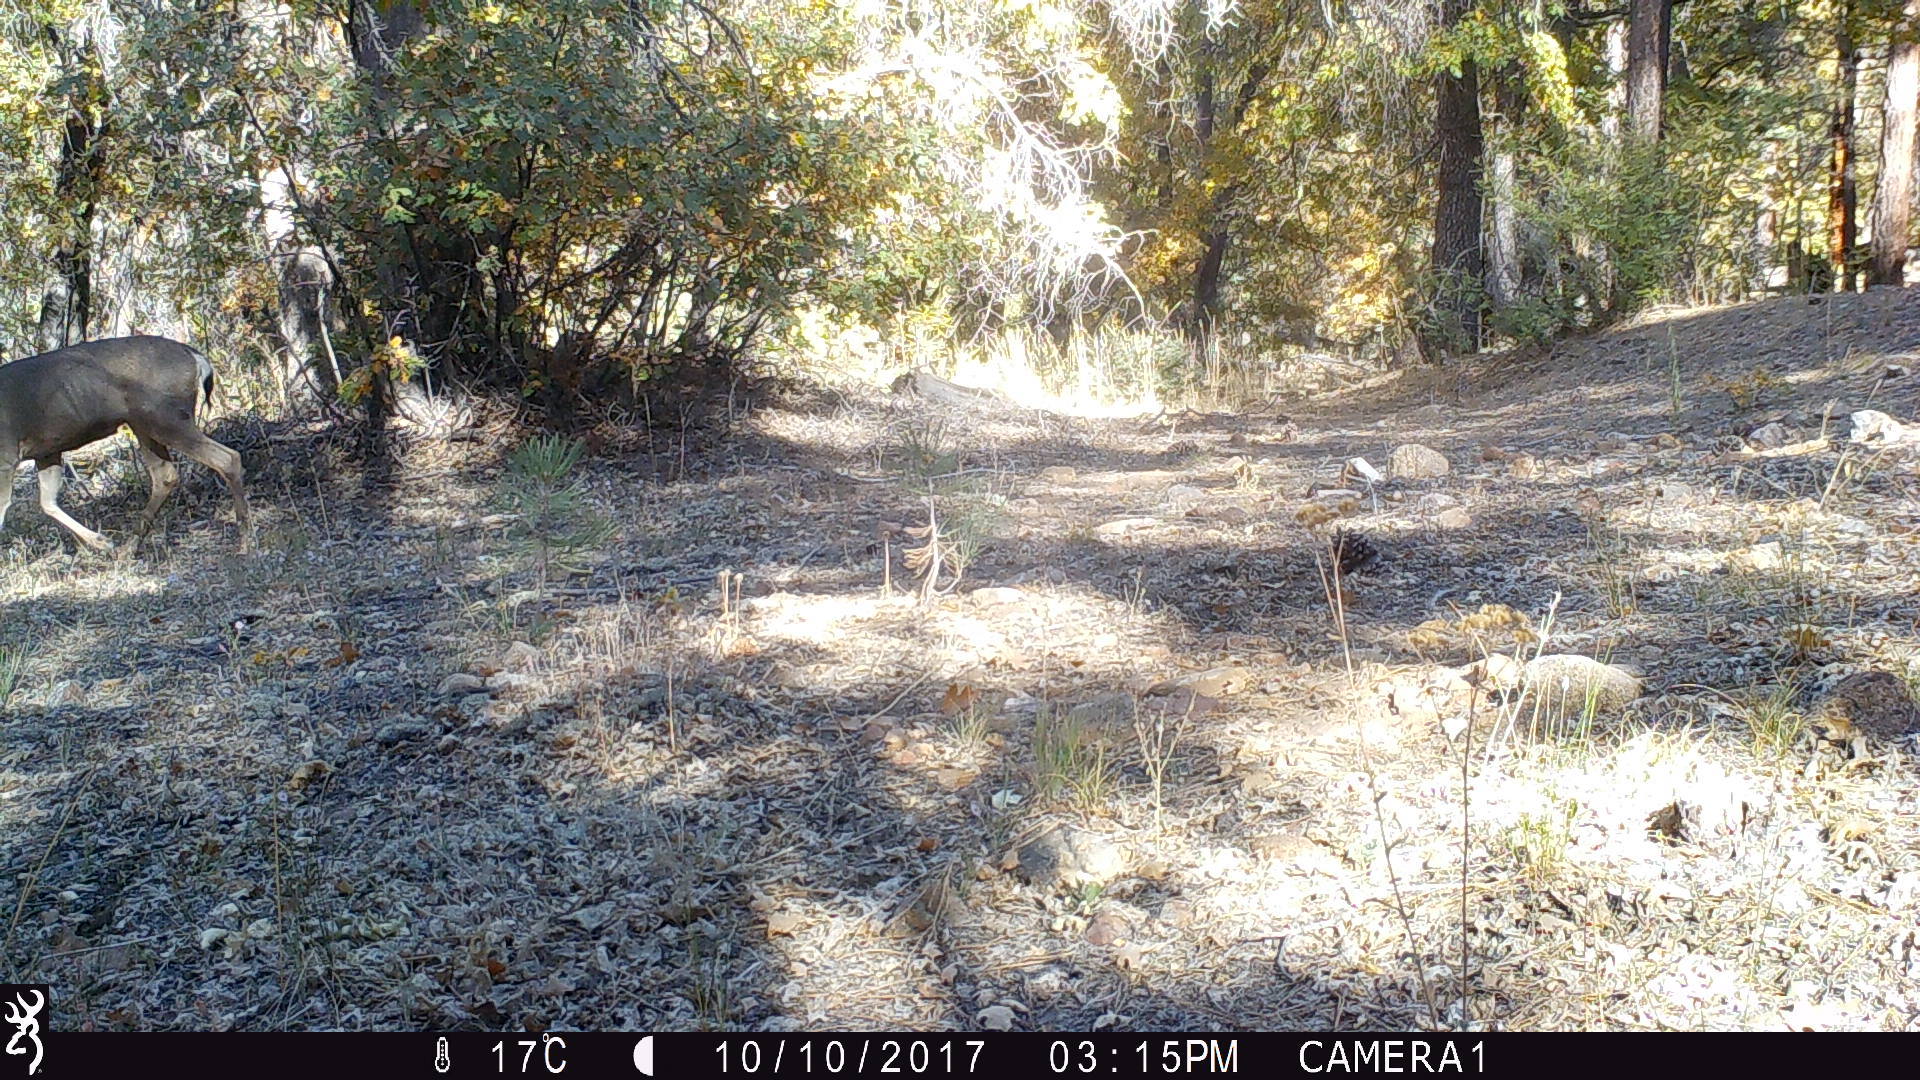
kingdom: Animalia
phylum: Chordata
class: Mammalia
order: Artiodactyla
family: Cervidae
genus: Odocoileus
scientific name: Odocoileus hemionus
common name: Mule deer
